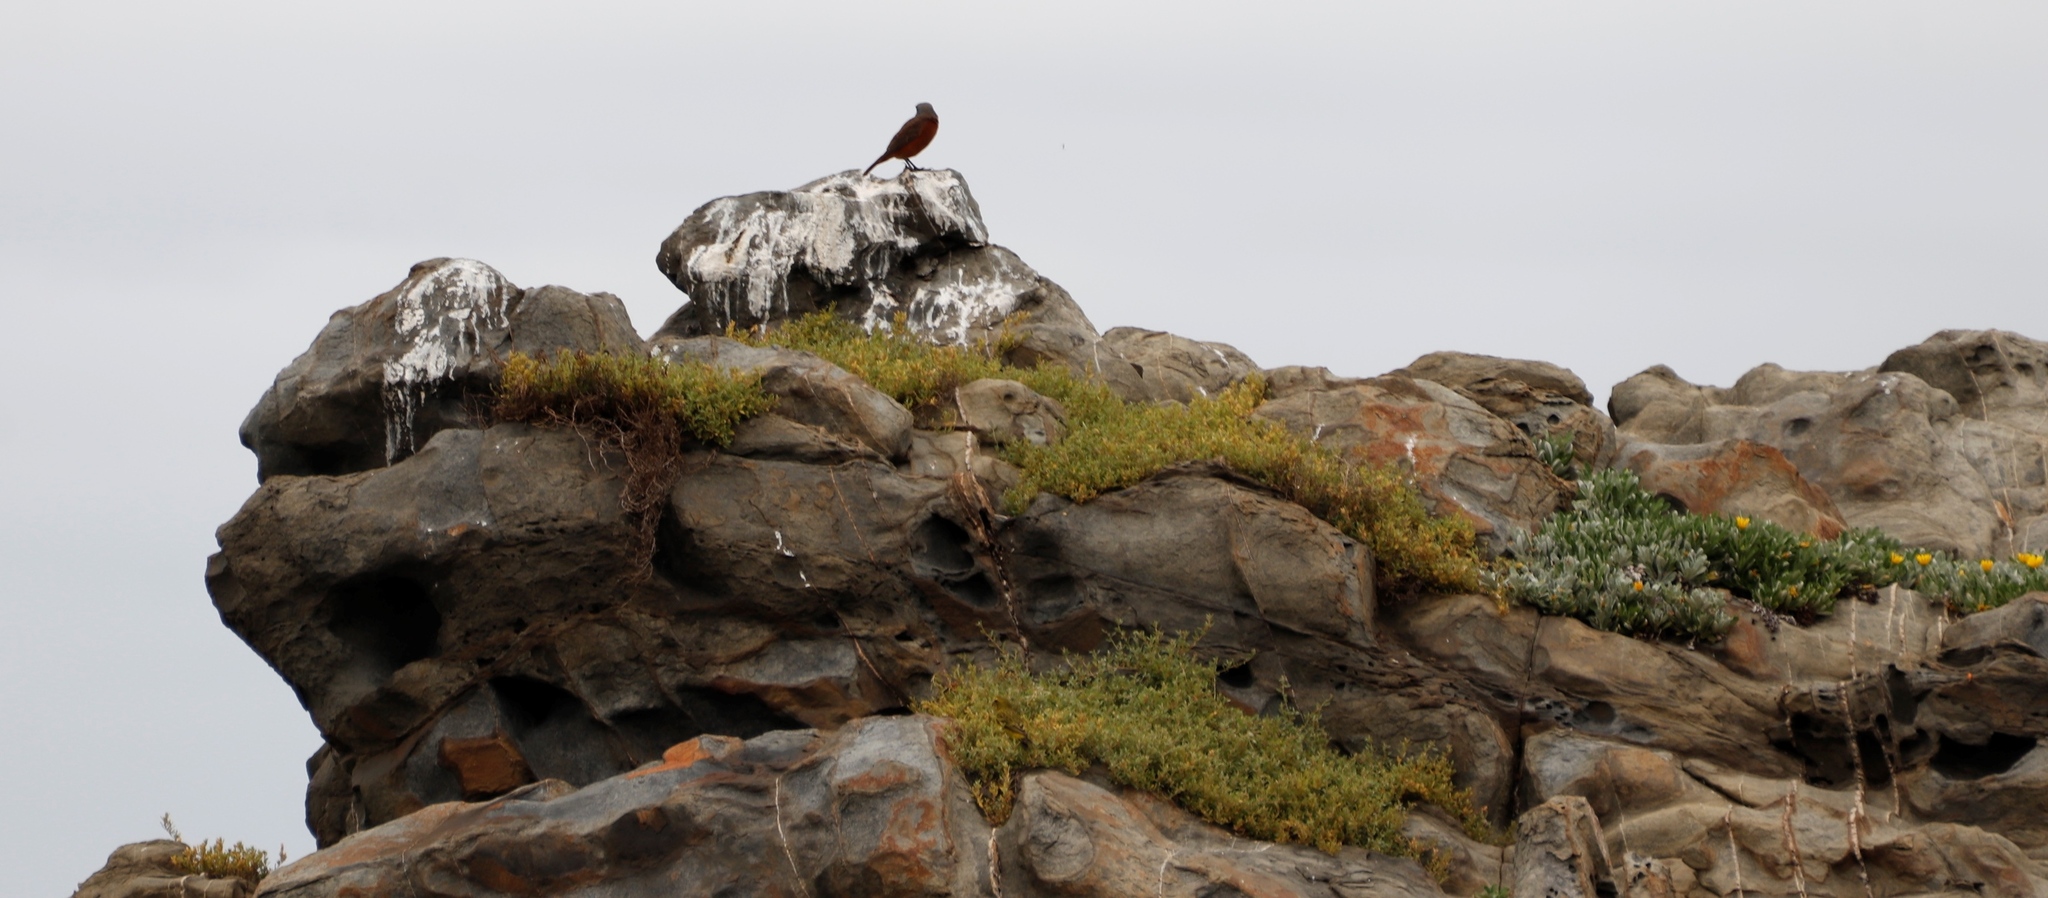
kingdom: Plantae
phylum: Tracheophyta
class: Magnoliopsida
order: Asterales
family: Asteraceae
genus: Gazania
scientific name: Gazania rigens
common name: Treasureflower
